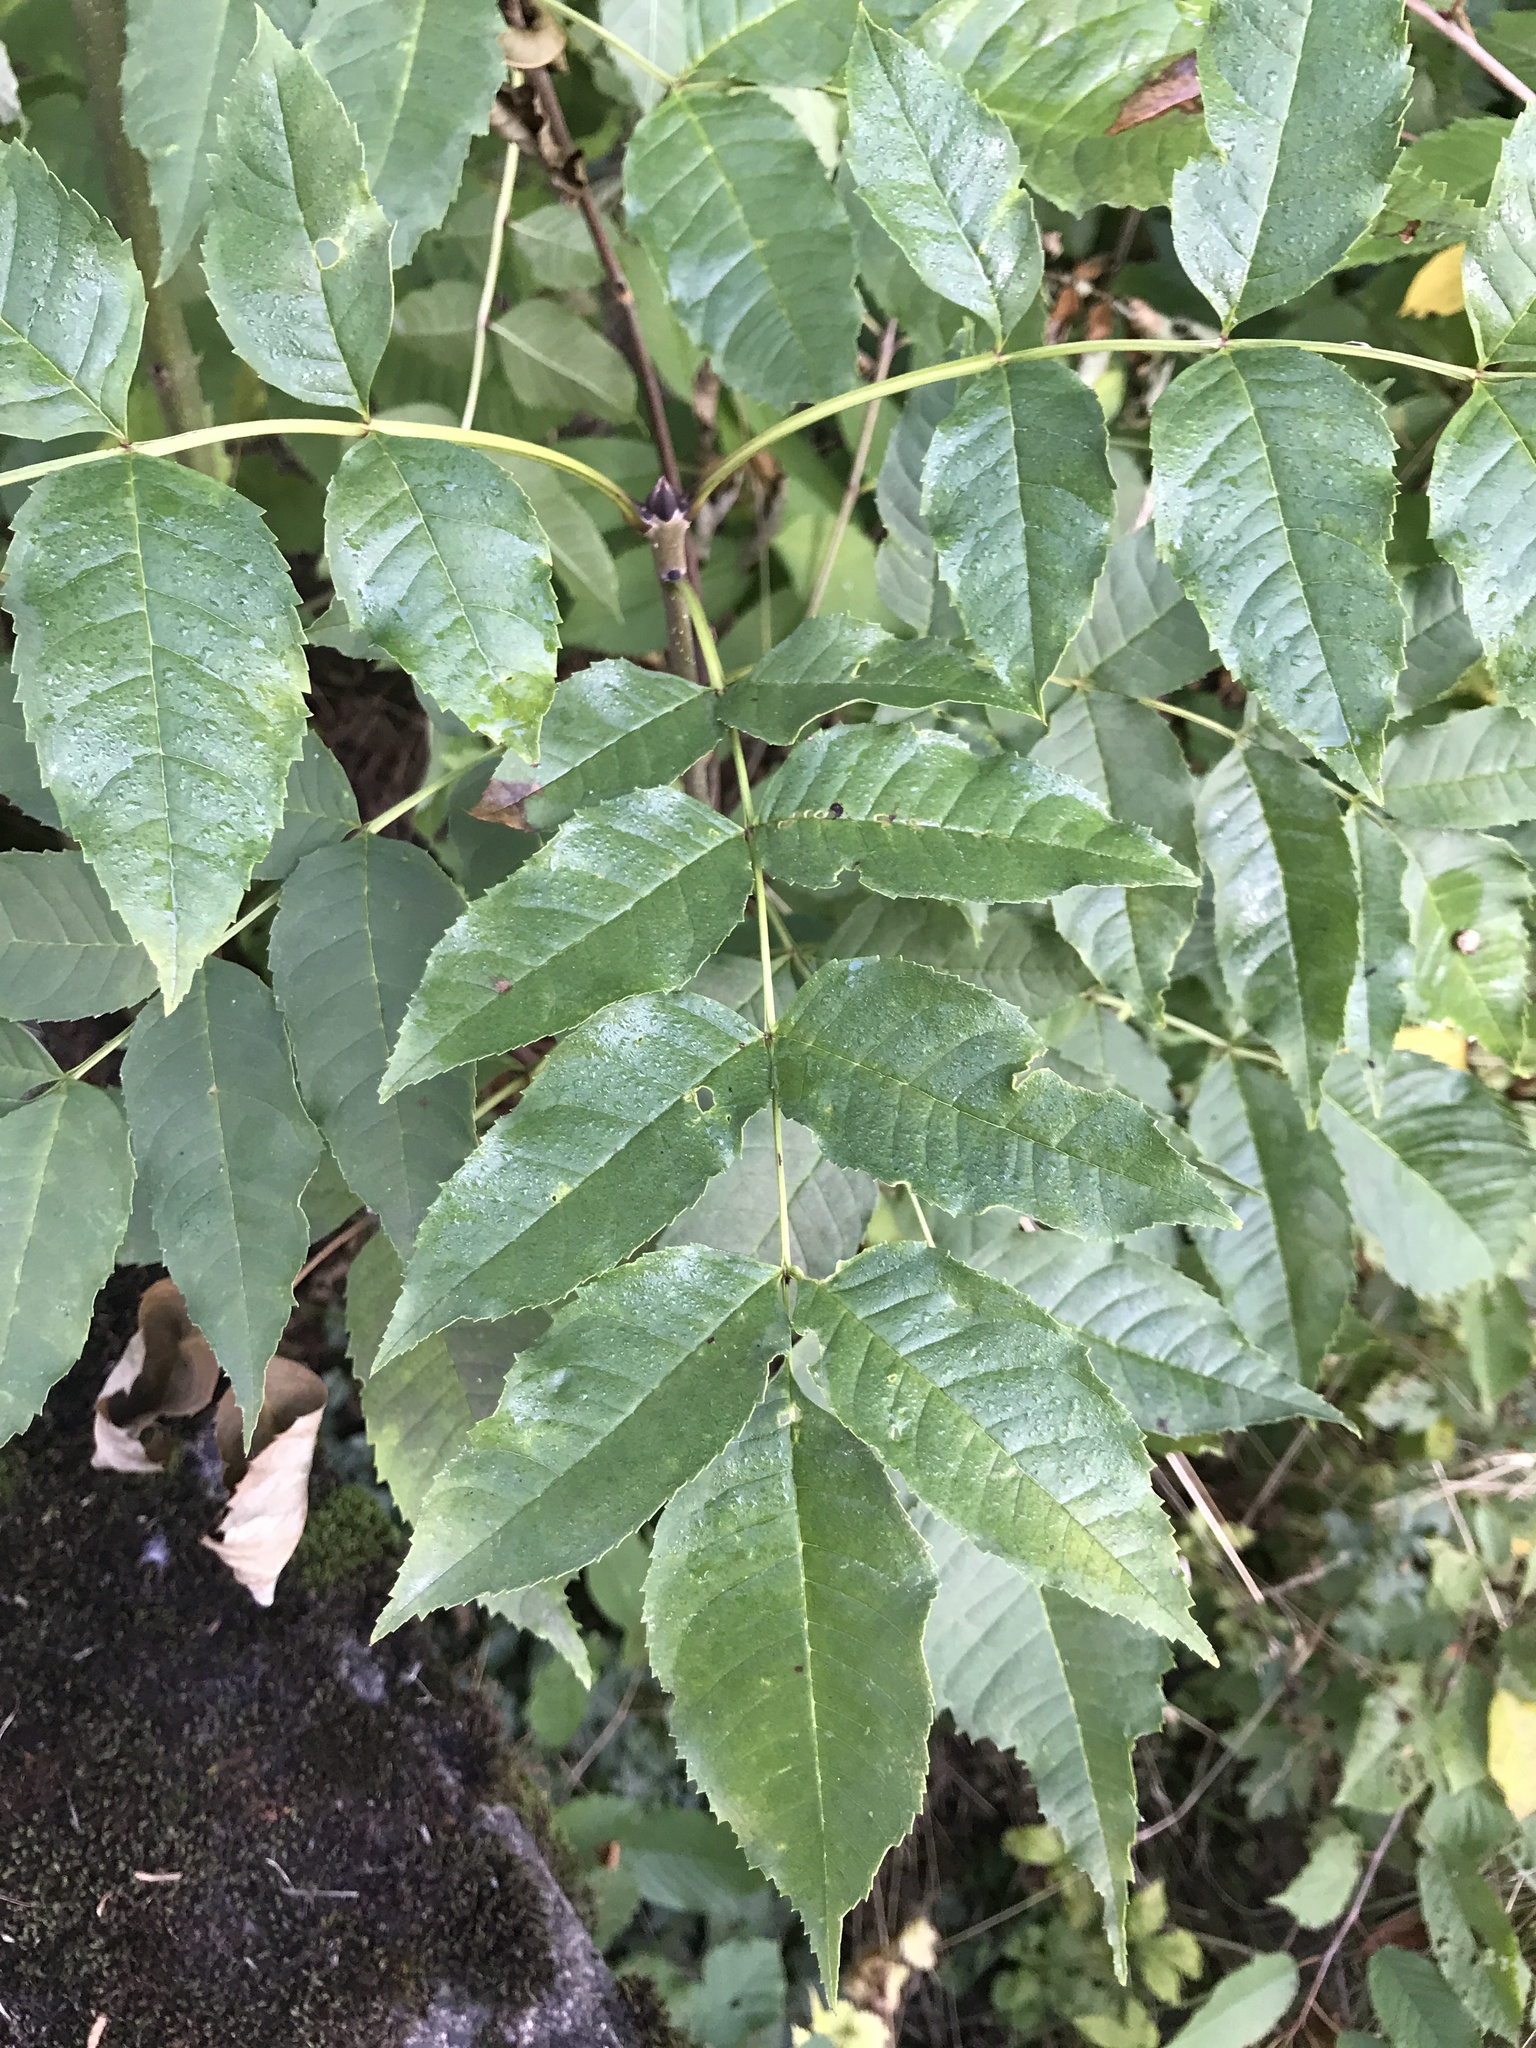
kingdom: Plantae
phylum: Tracheophyta
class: Magnoliopsida
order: Lamiales
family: Oleaceae
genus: Fraxinus
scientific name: Fraxinus excelsior
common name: European ash
